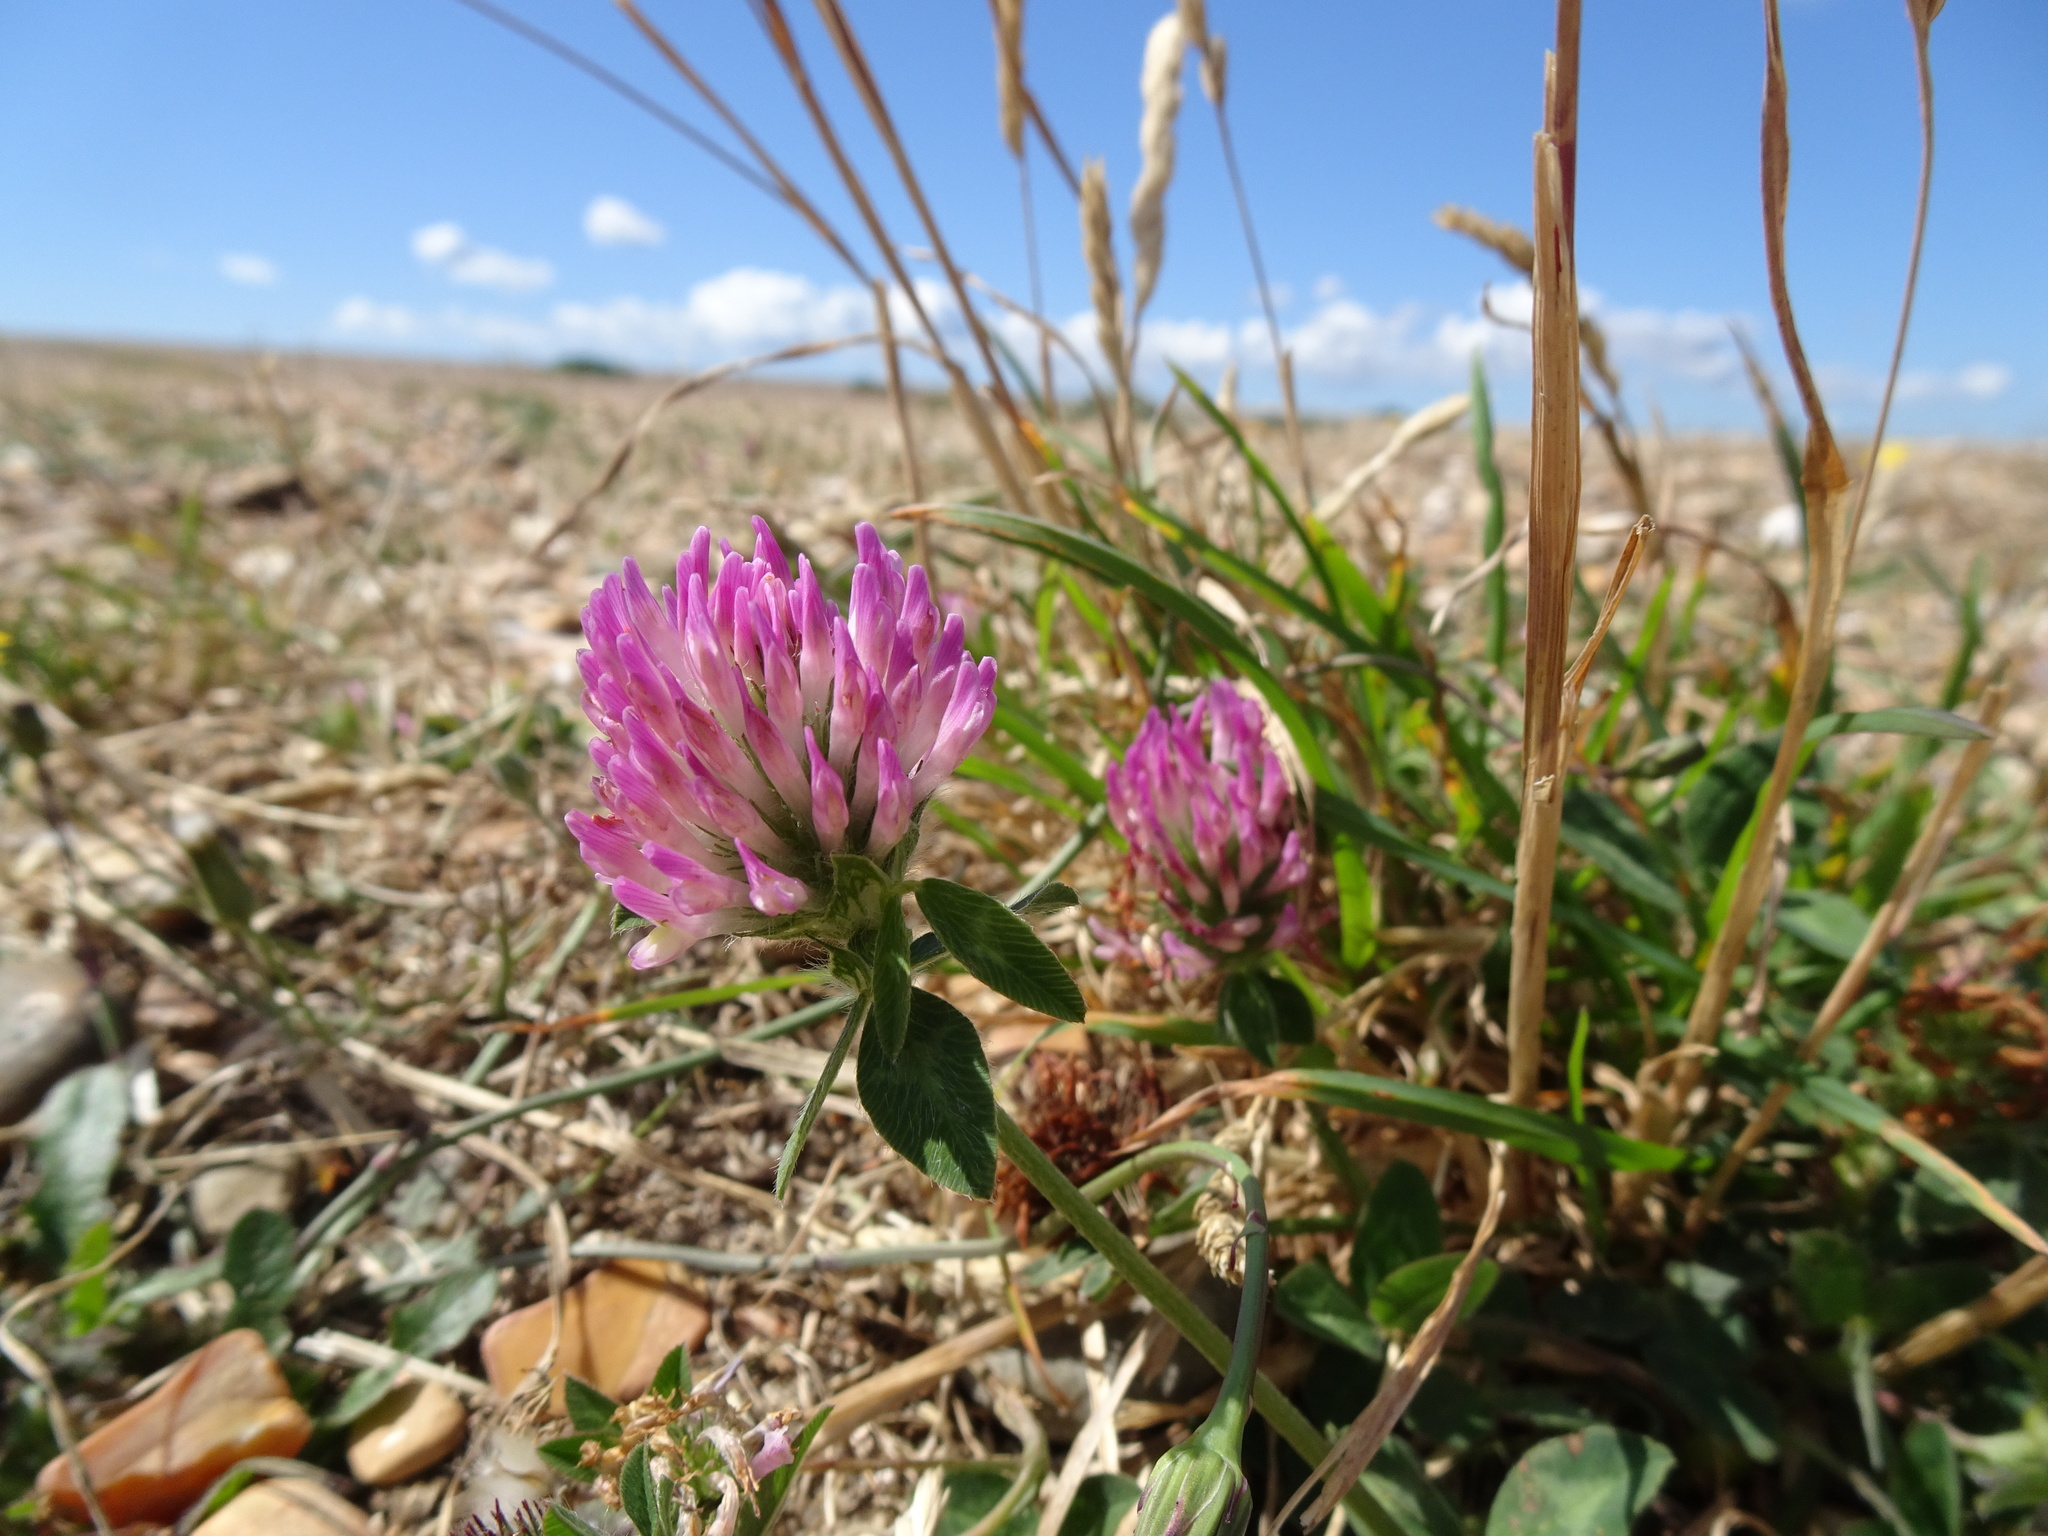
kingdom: Plantae
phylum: Tracheophyta
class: Magnoliopsida
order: Fabales
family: Fabaceae
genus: Trifolium
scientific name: Trifolium pratense
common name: Red clover
